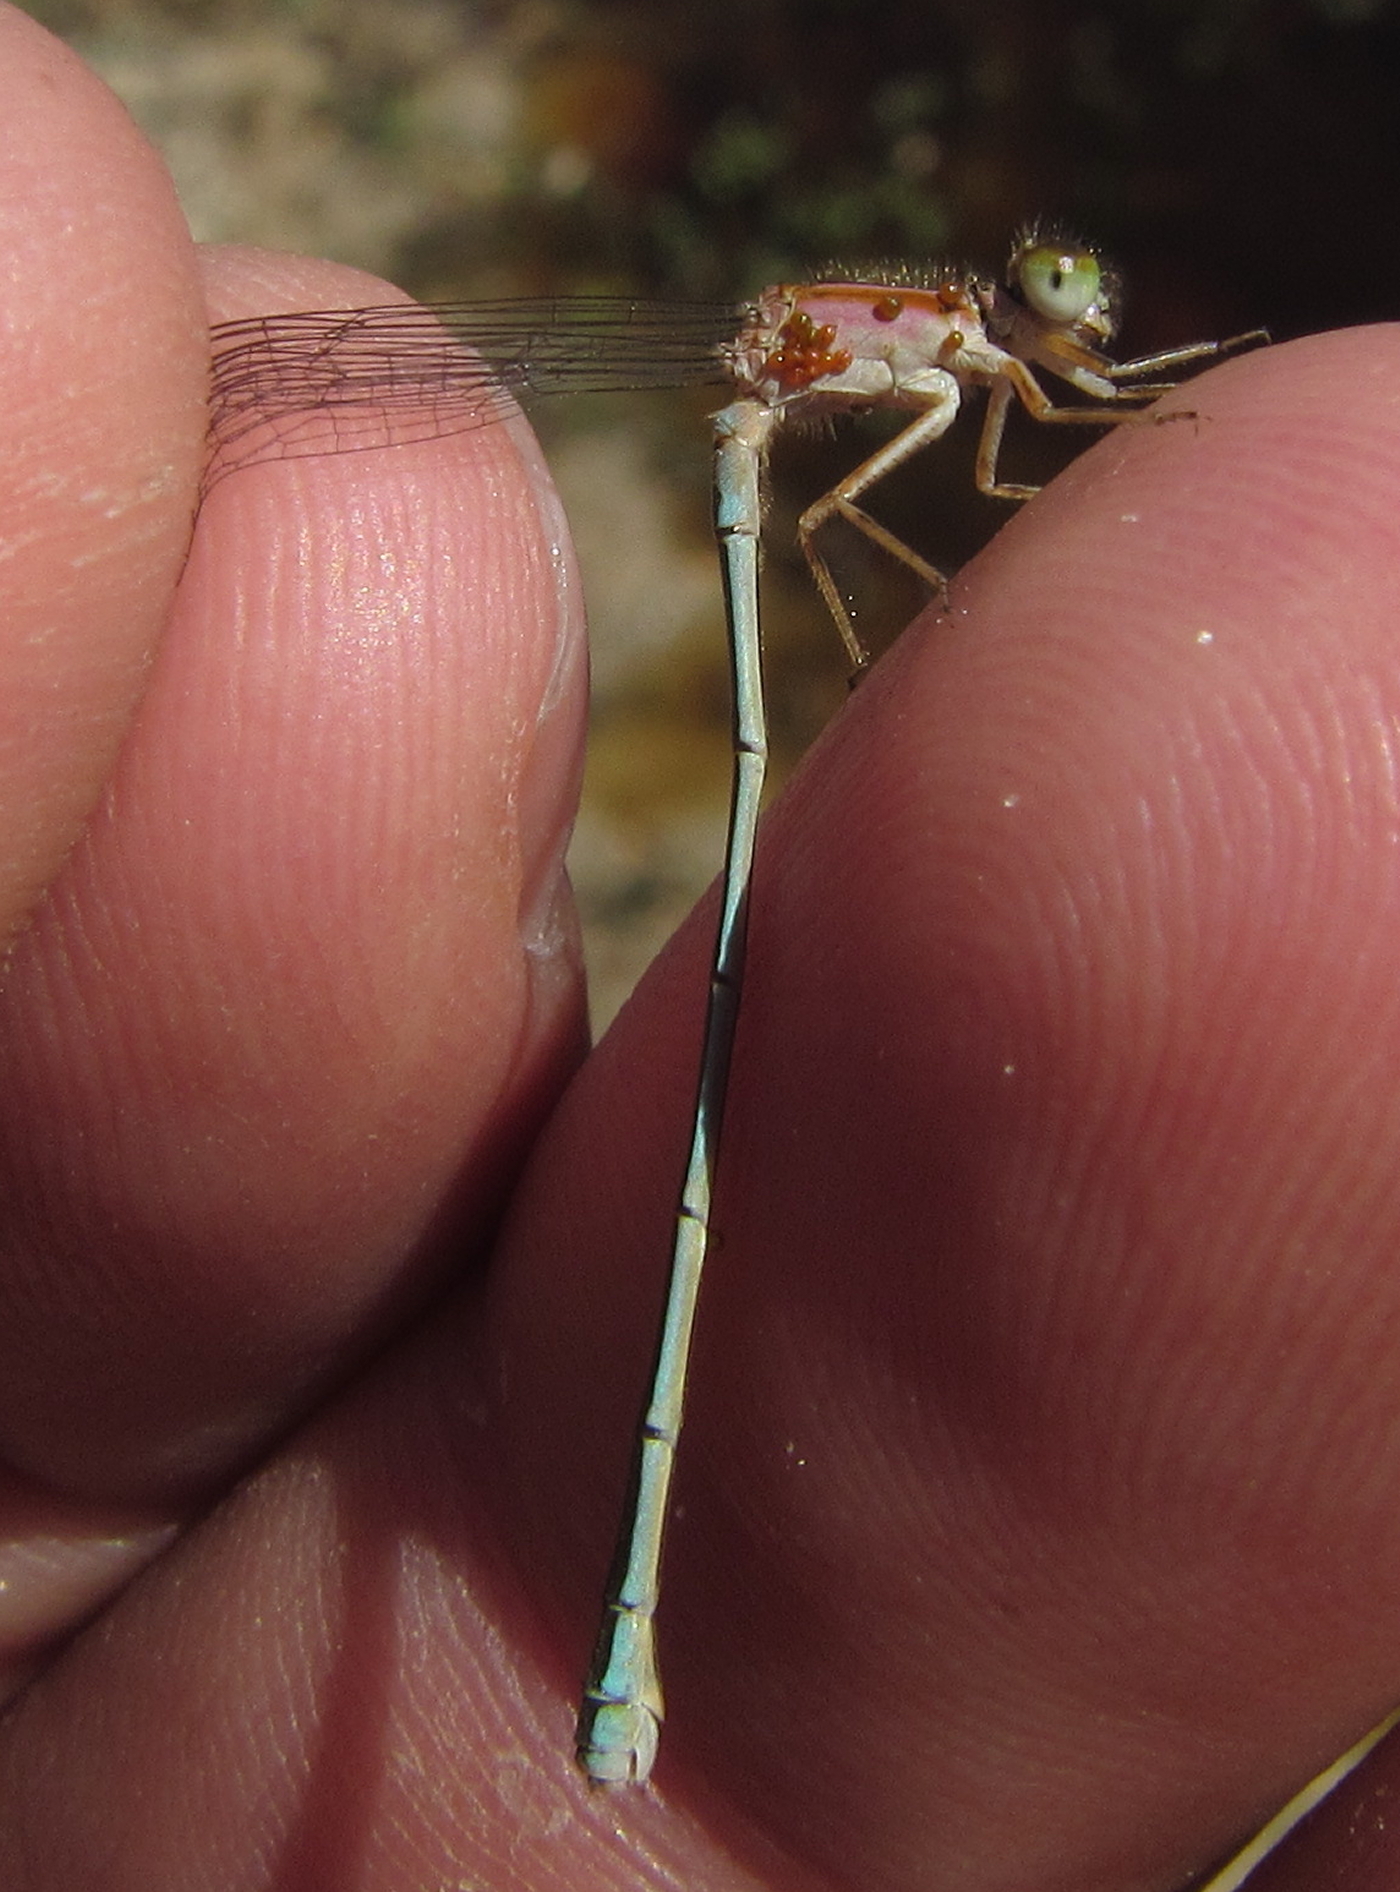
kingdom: Animalia
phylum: Arthropoda
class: Insecta
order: Odonata
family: Coenagrionidae
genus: Ischnura
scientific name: Ischnura senegalensis
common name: Tropical bluetail
